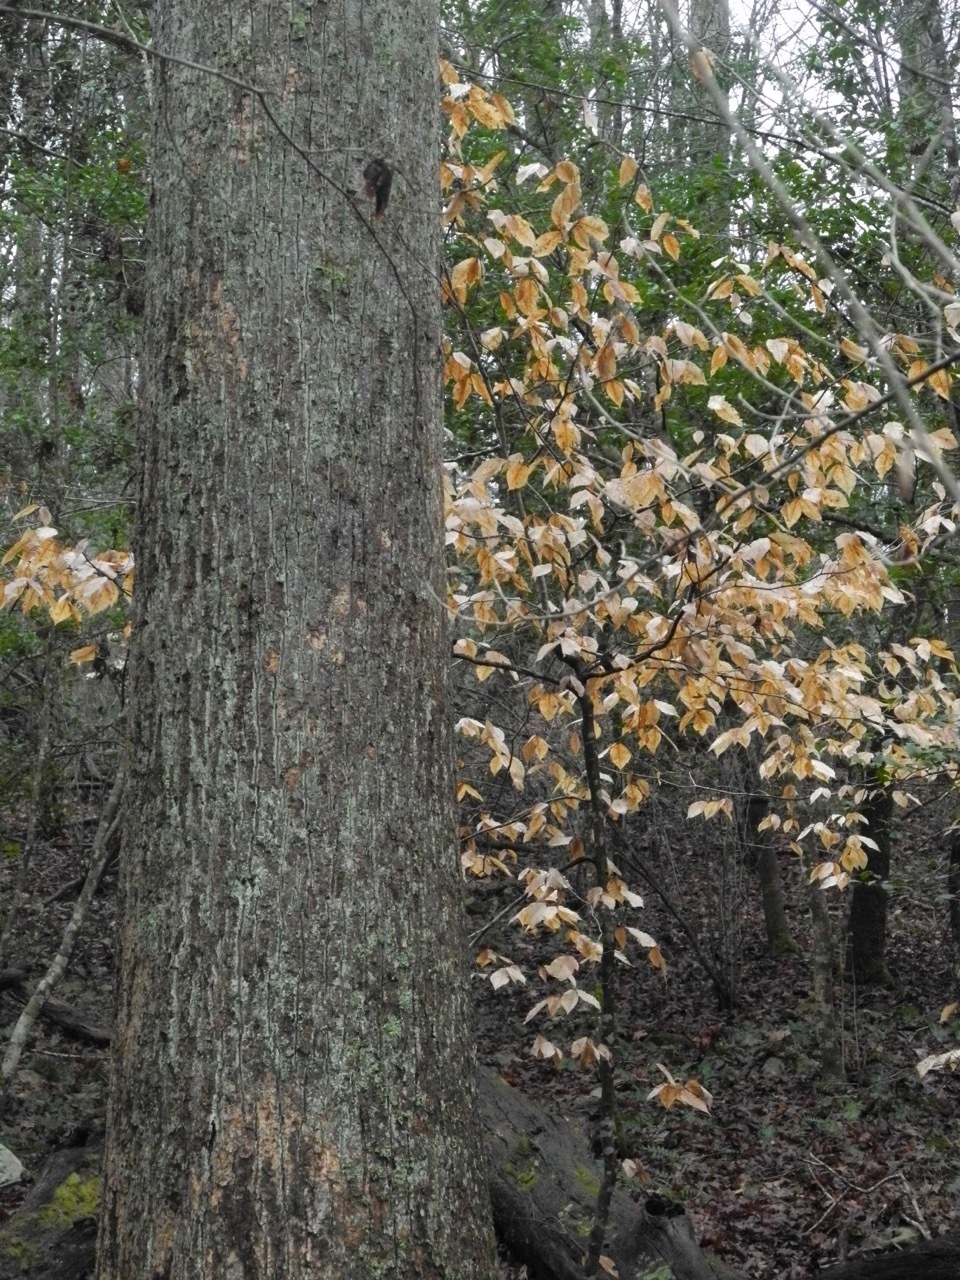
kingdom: Plantae
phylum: Tracheophyta
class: Magnoliopsida
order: Magnoliales
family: Magnoliaceae
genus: Liriodendron
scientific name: Liriodendron tulipifera
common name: Tulip tree
